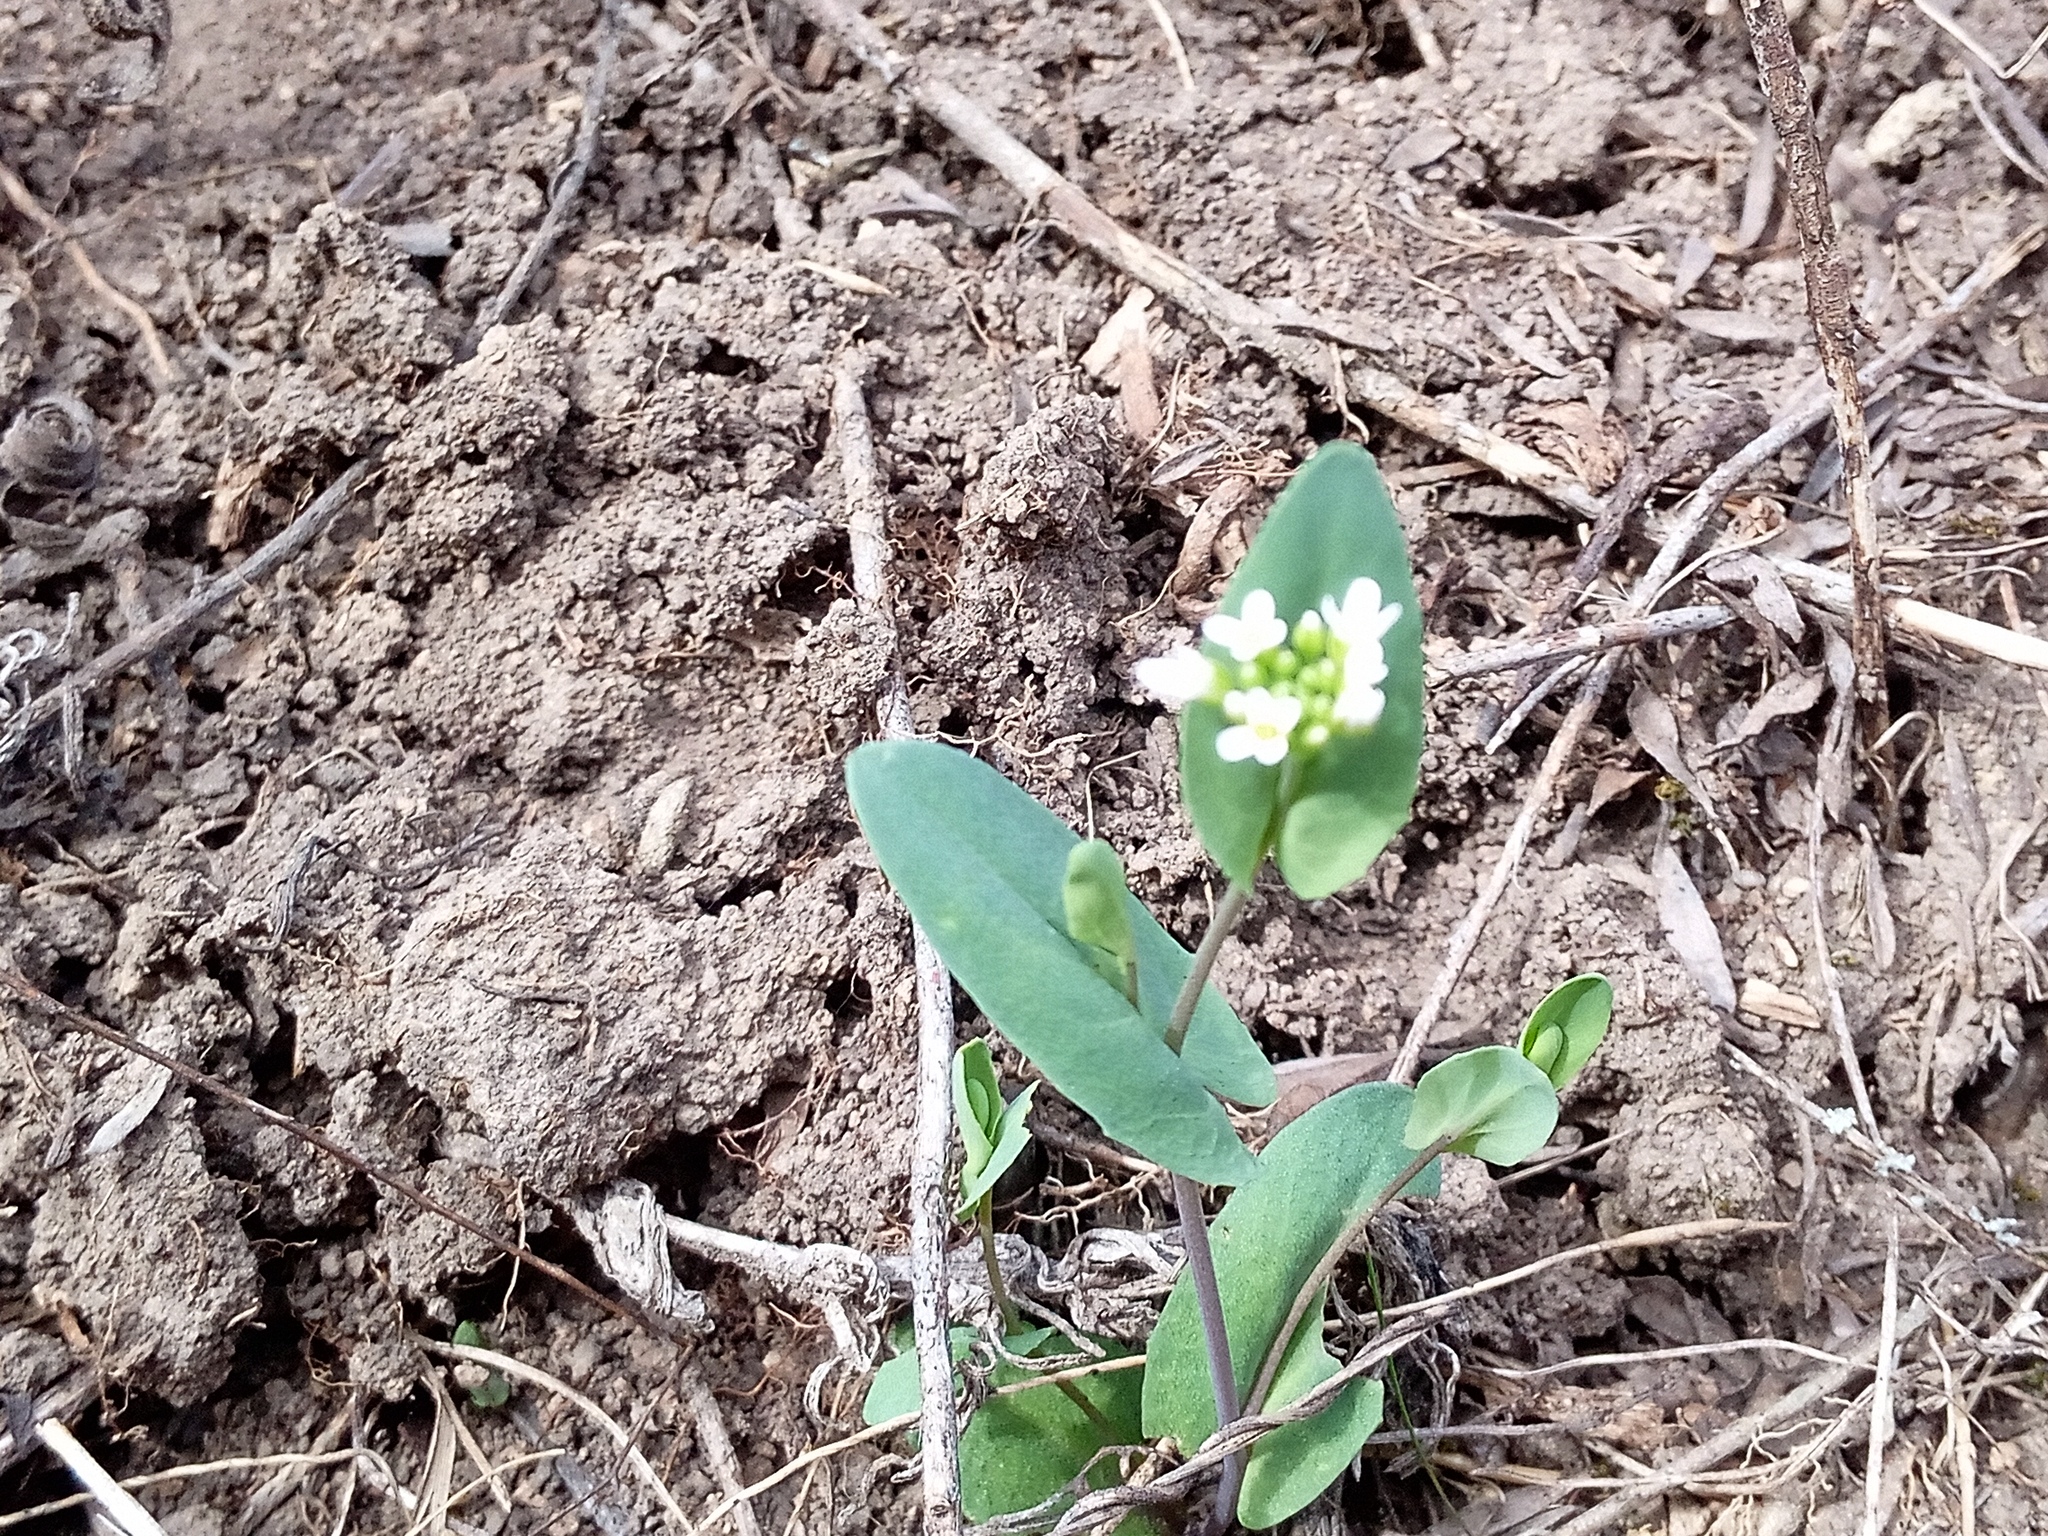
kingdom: Plantae
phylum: Tracheophyta
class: Magnoliopsida
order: Brassicales
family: Brassicaceae
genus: Noccaea
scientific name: Noccaea perfoliata
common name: Perfoliate pennycress
